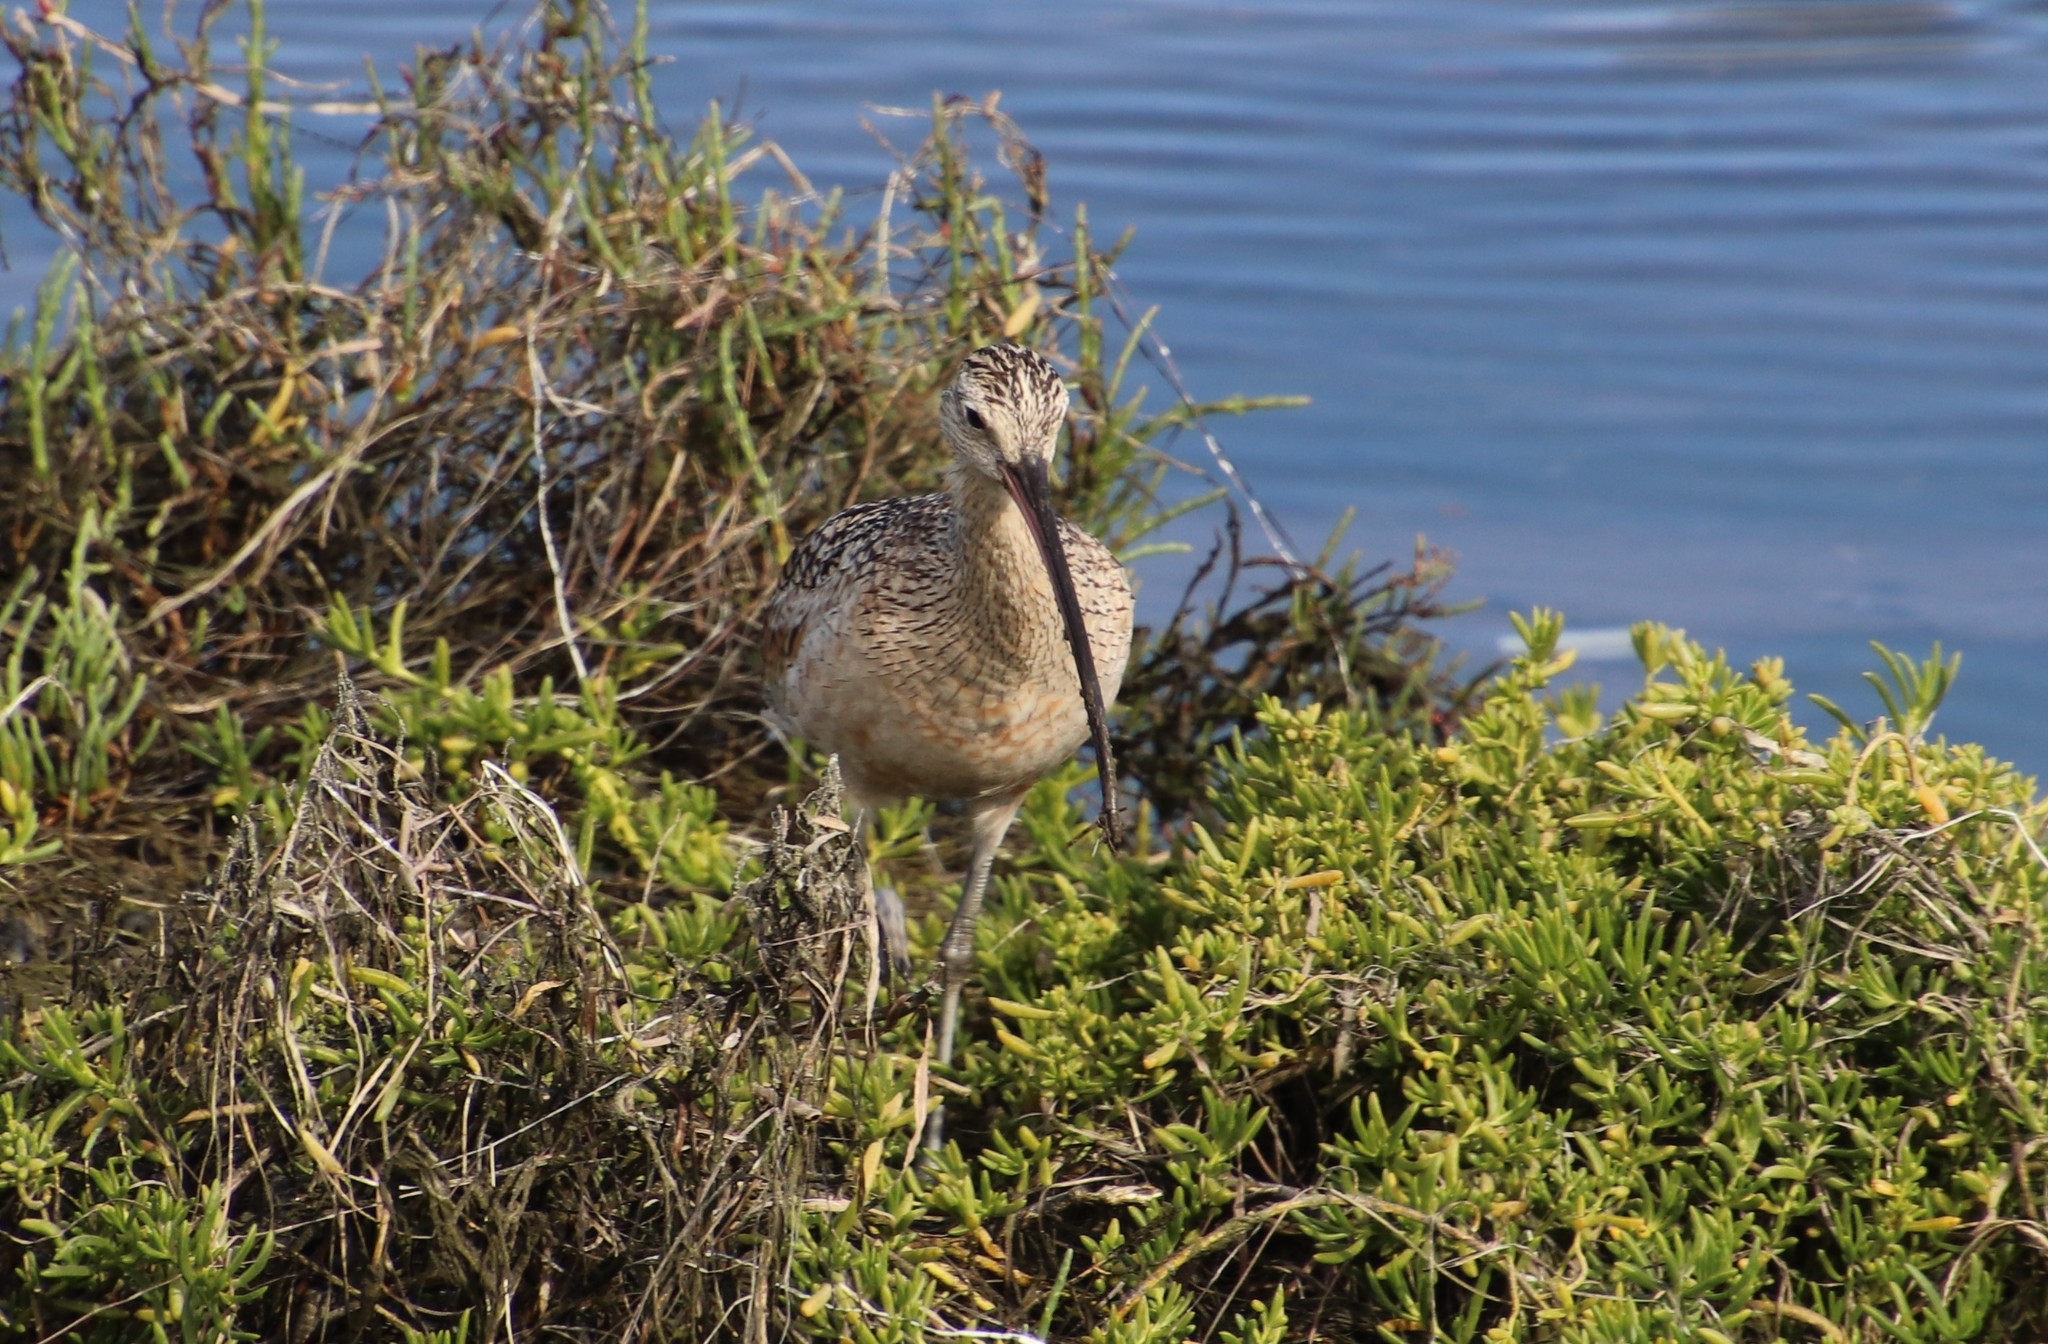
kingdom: Animalia
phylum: Chordata
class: Aves
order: Charadriiformes
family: Scolopacidae
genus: Numenius
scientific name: Numenius americanus
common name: Long-billed curlew
